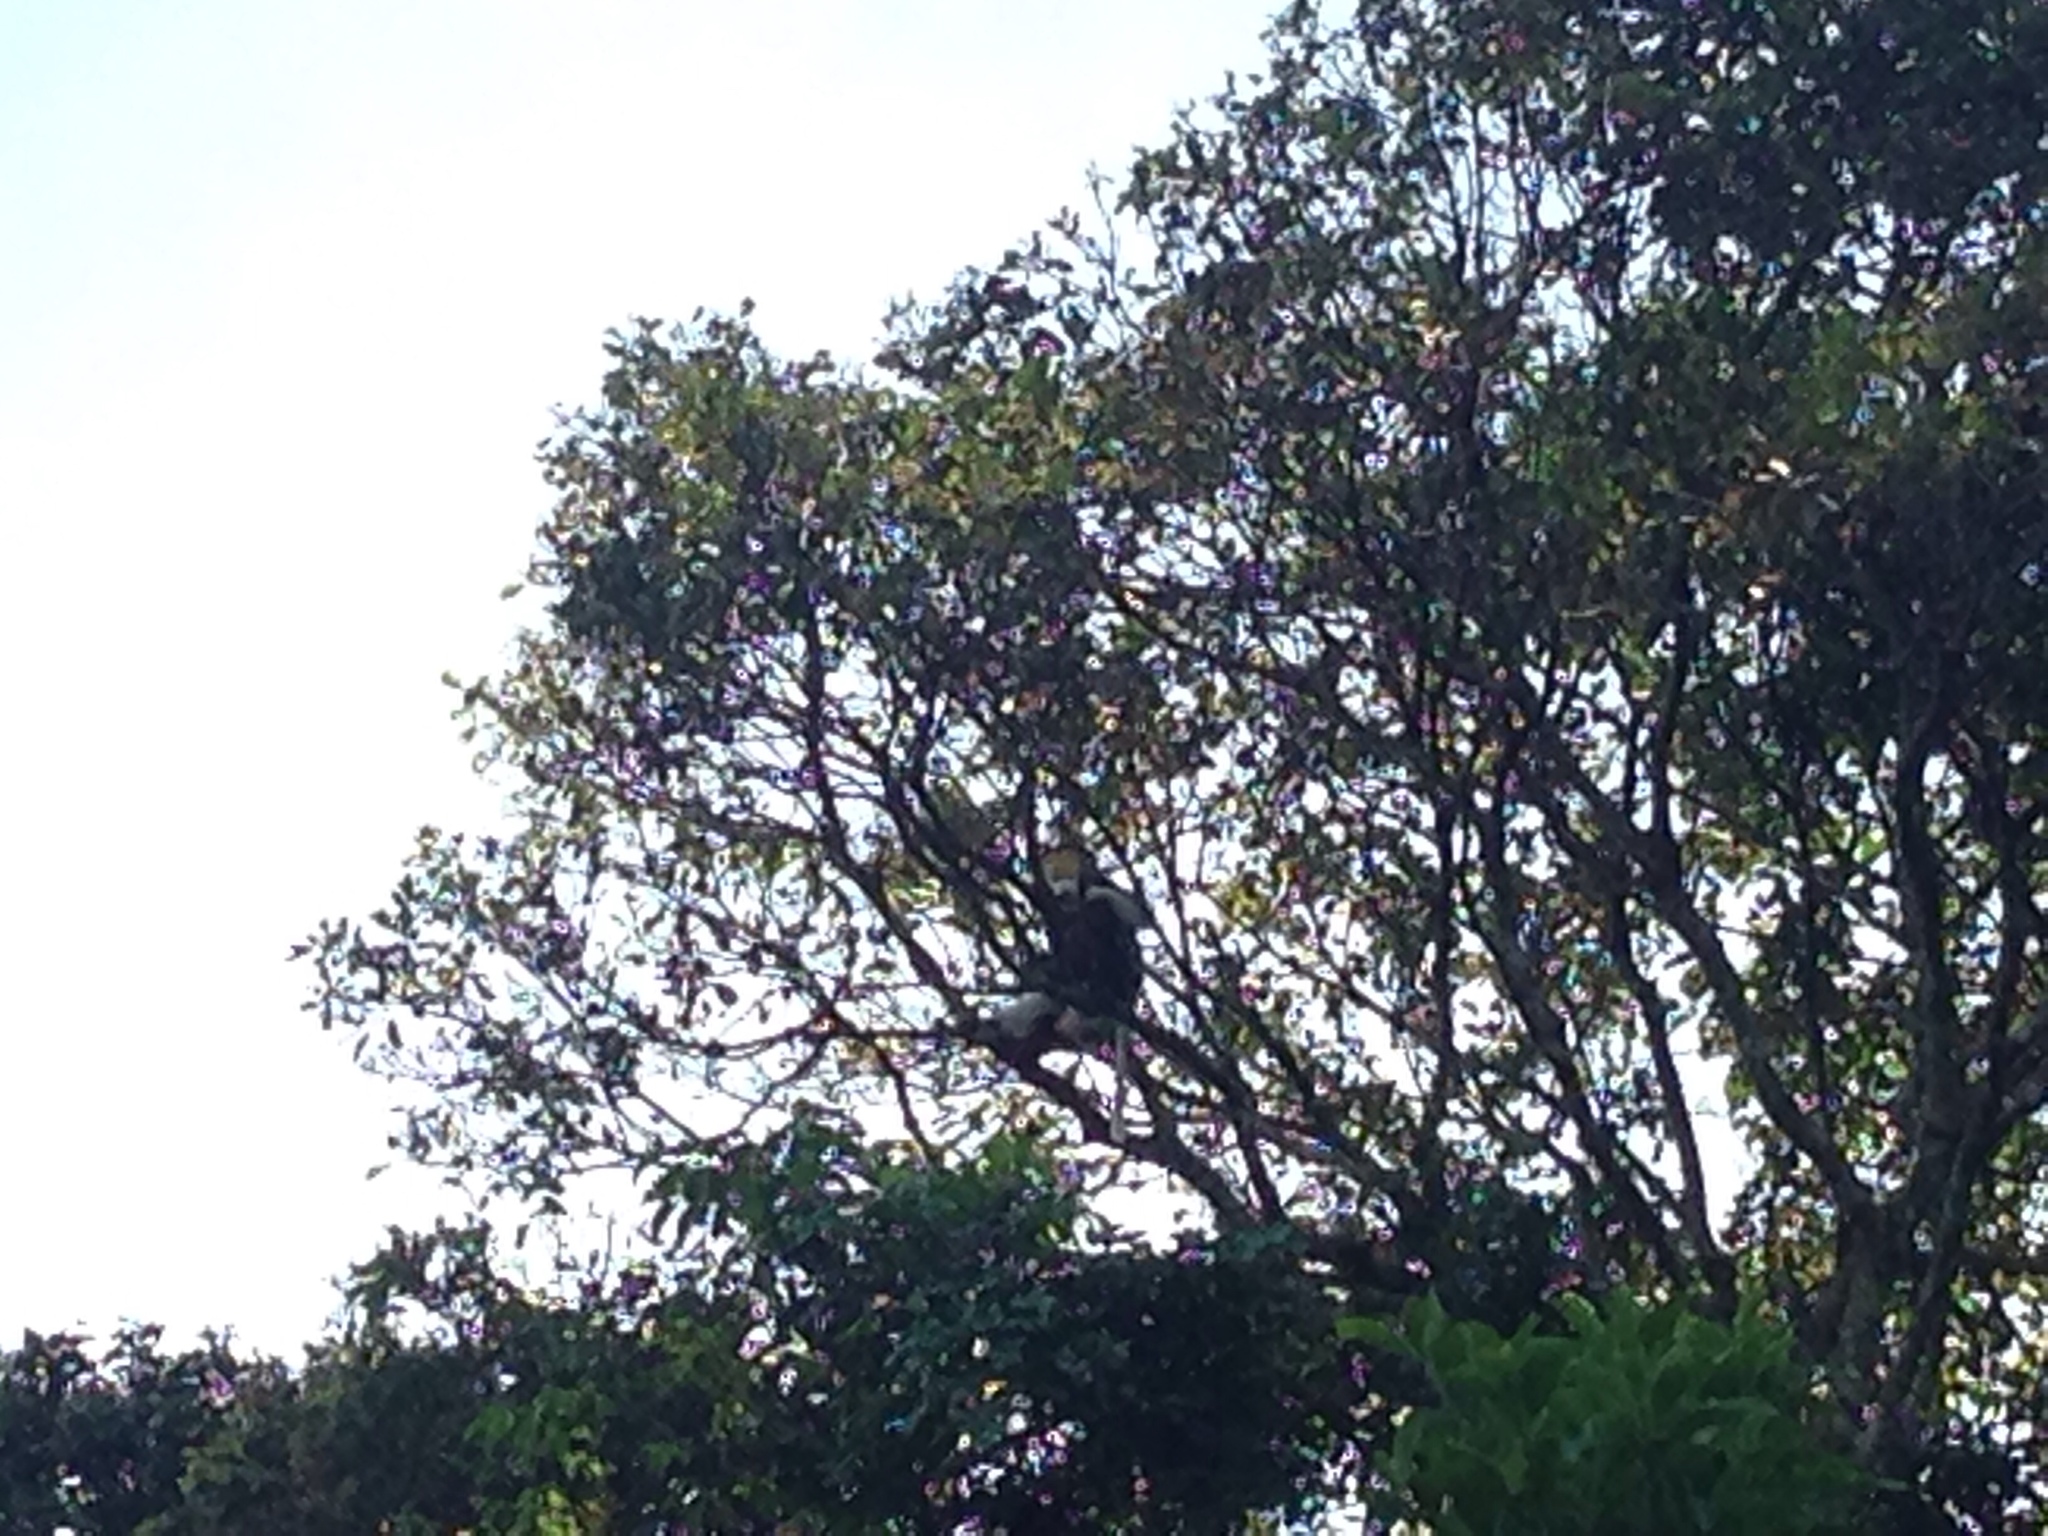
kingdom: Animalia
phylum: Chordata
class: Mammalia
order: Primates
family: Cercopithecidae
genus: Pygathrix
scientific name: Pygathrix nemaeus
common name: Red-shanked douc
